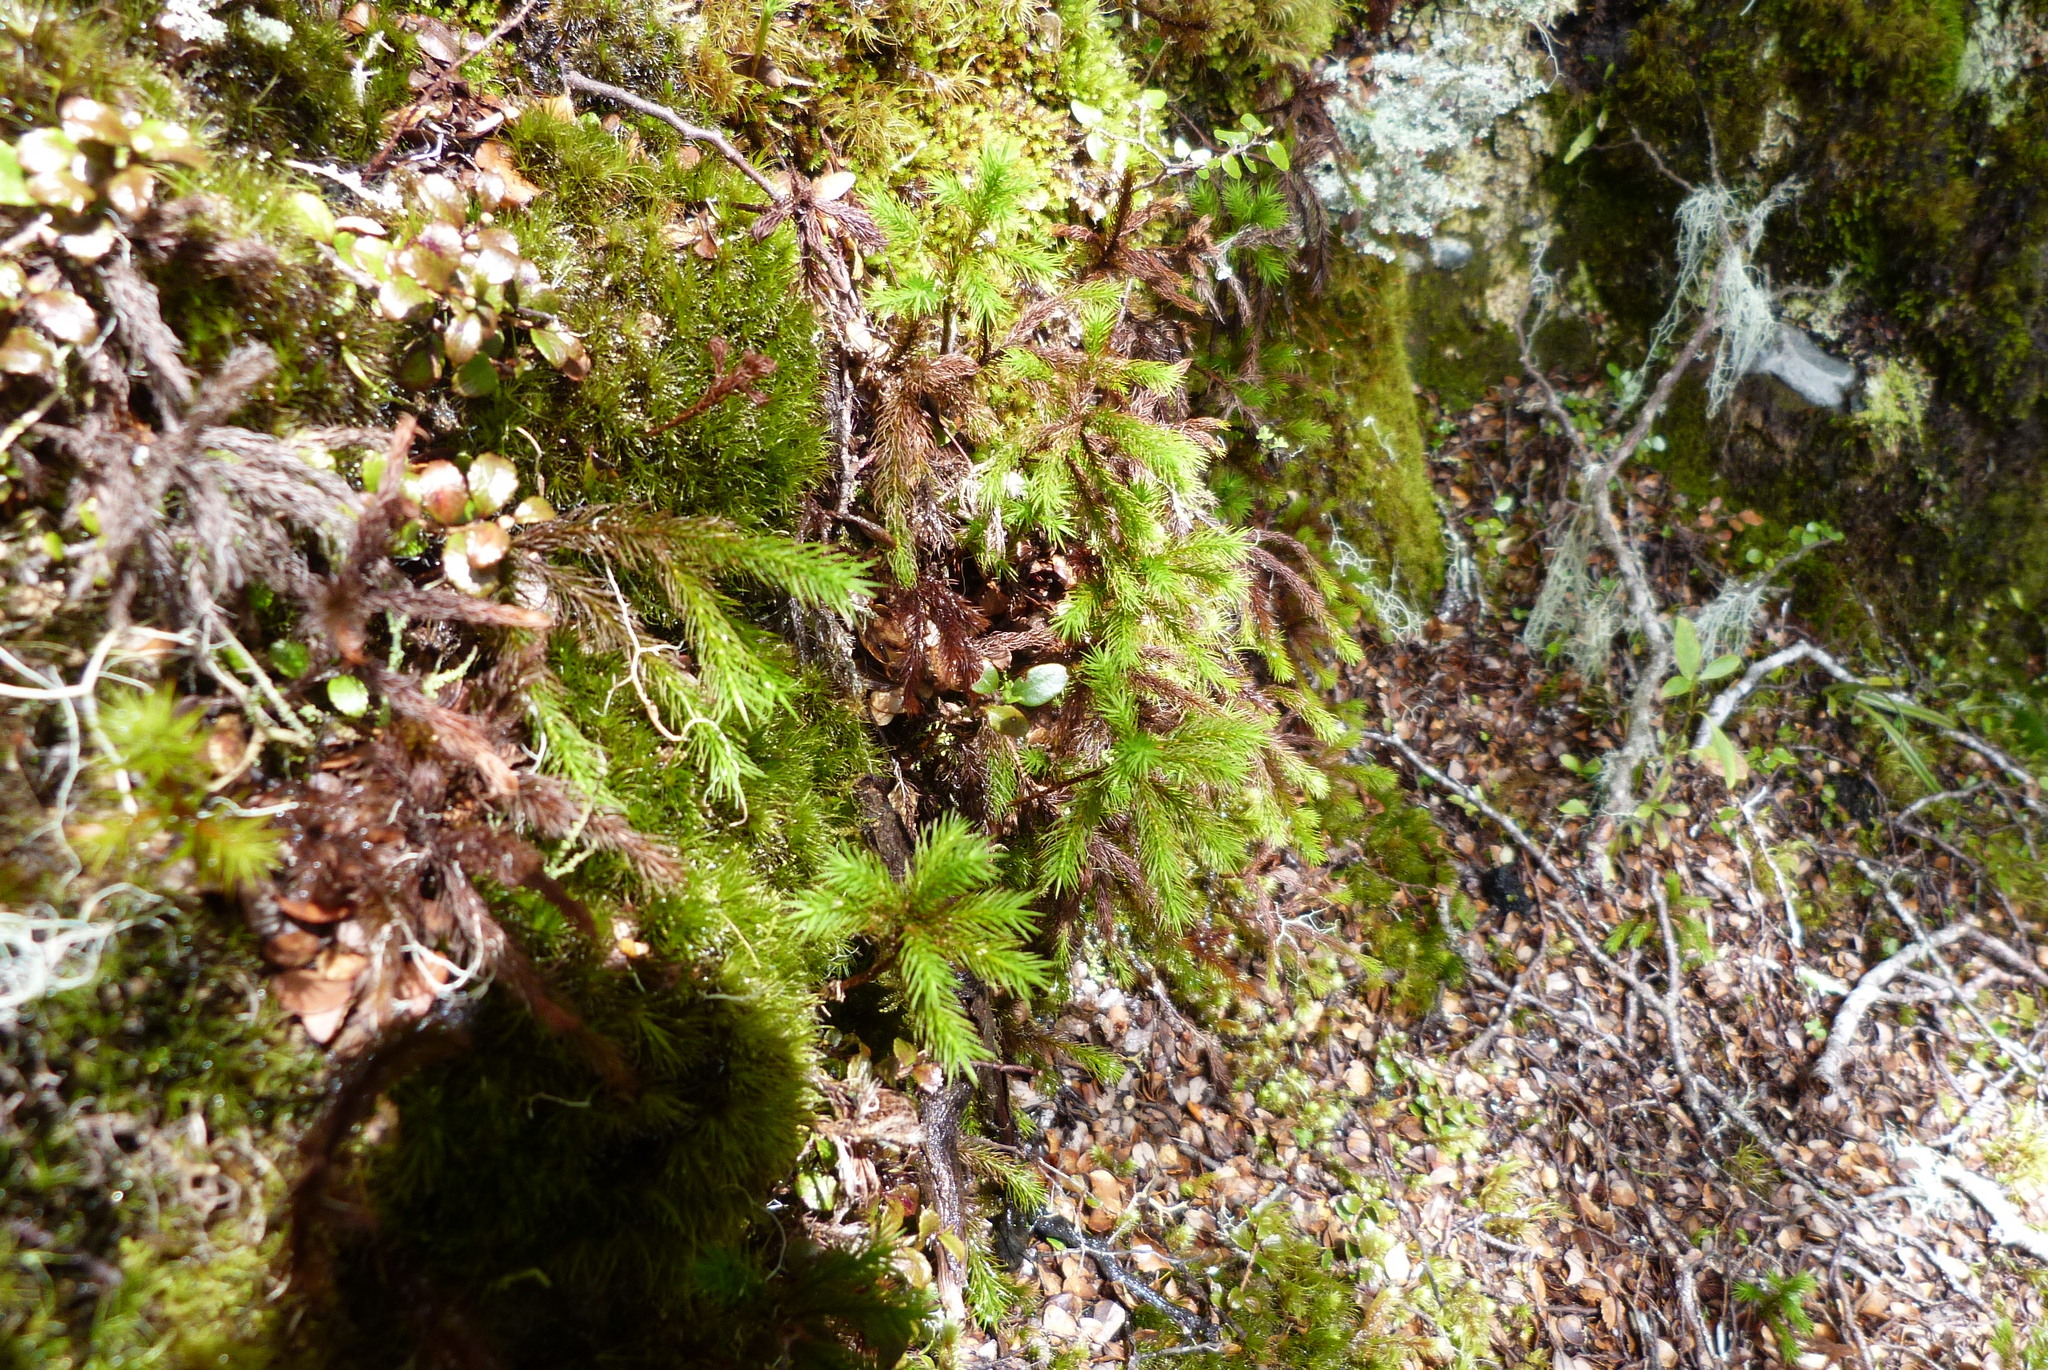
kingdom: Plantae
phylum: Bryophyta
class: Polytrichopsida
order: Polytrichales
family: Polytrichaceae
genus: Dendroligotrichum
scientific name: Dendroligotrichum tongariroense
